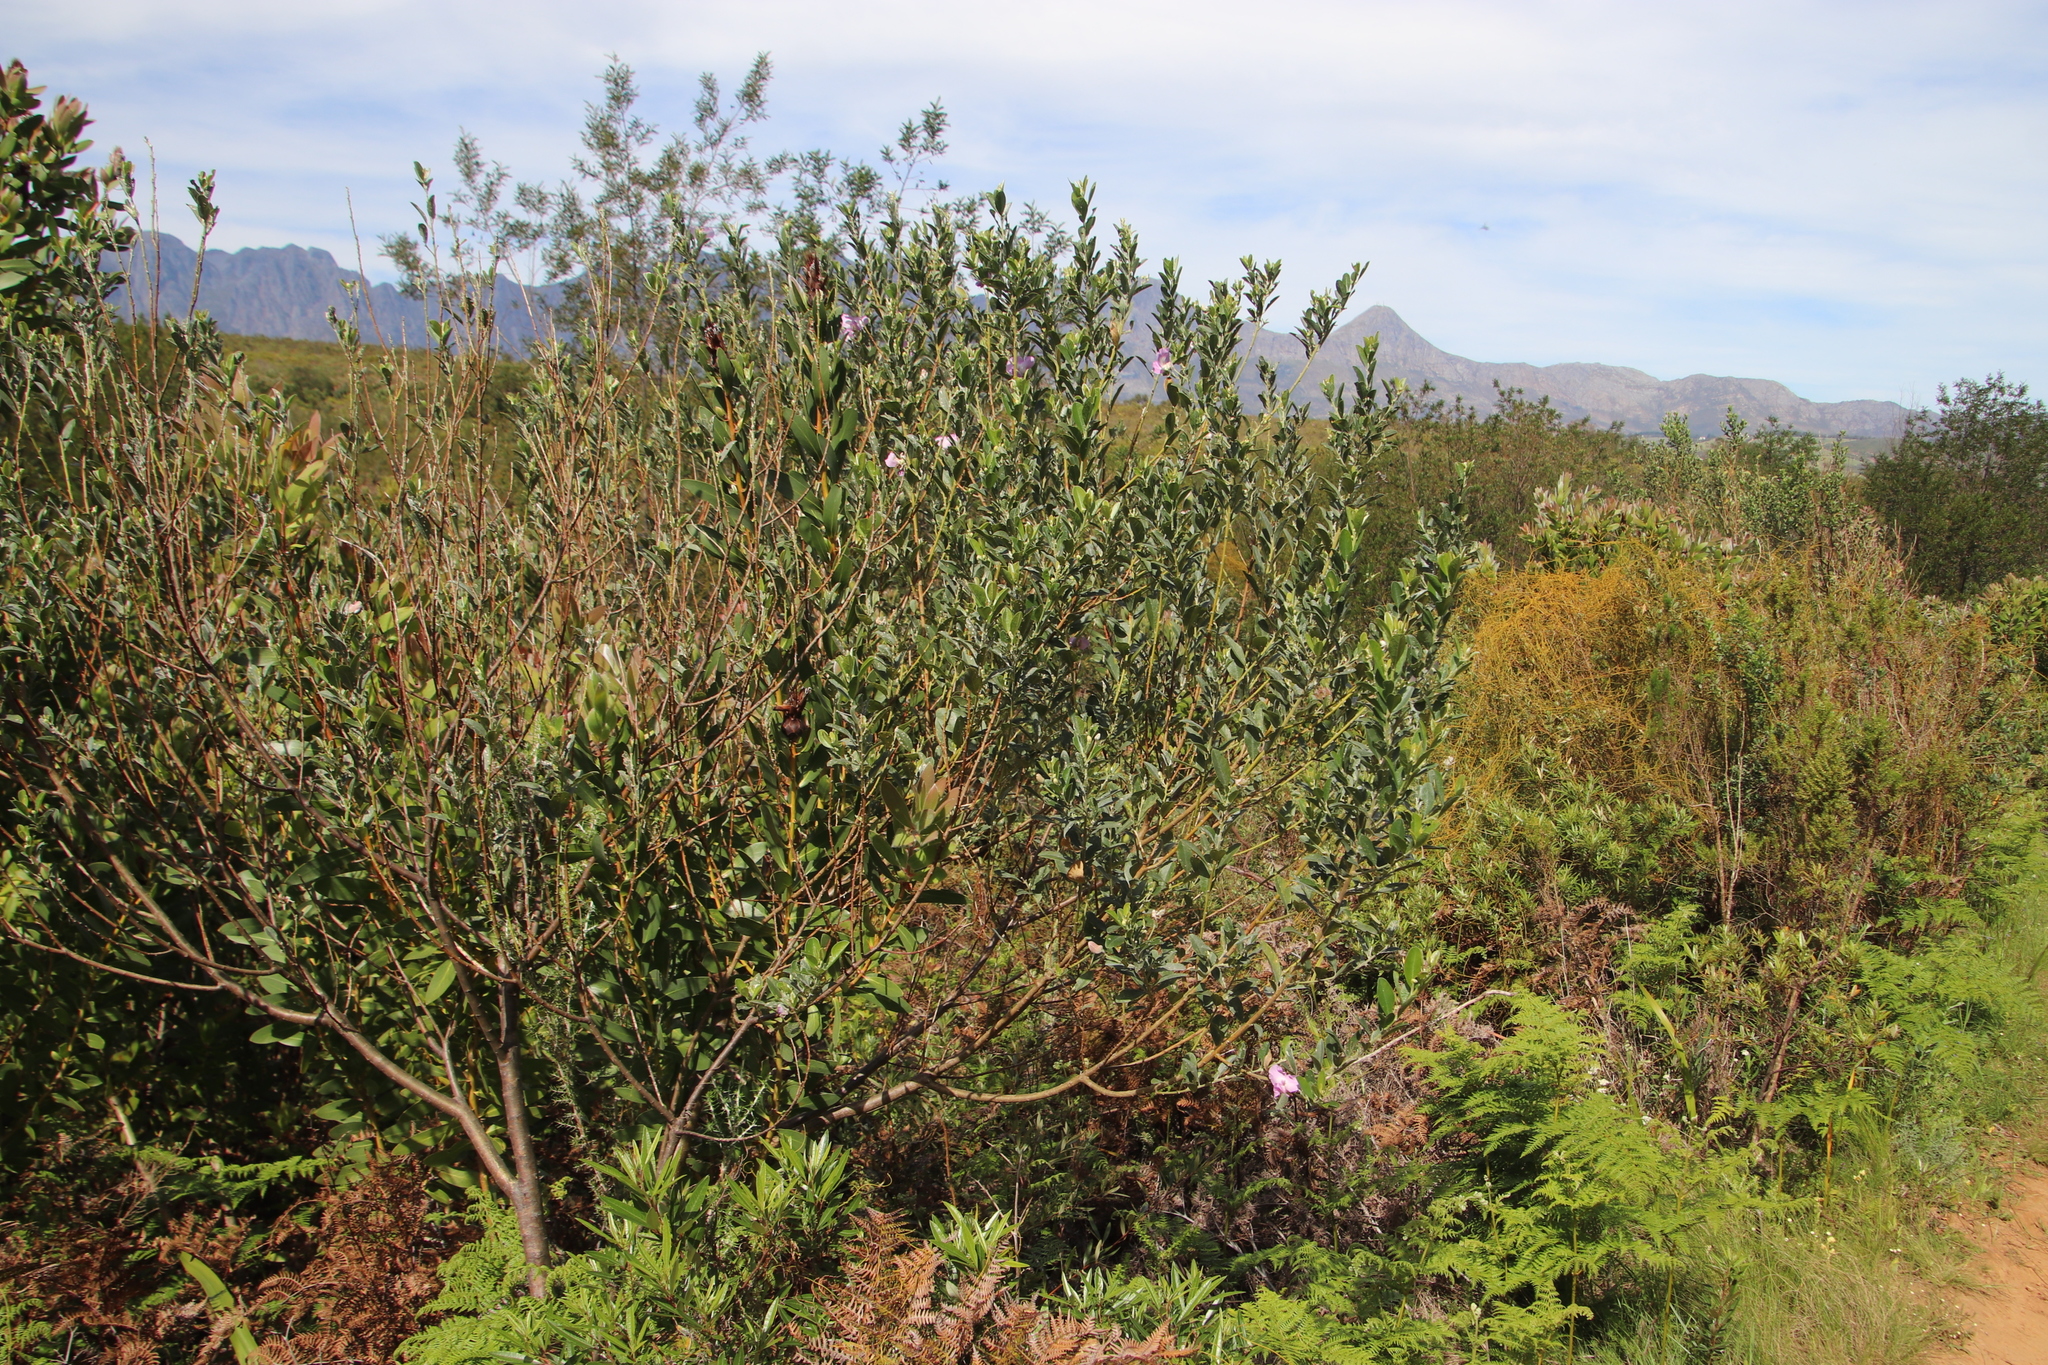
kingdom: Plantae
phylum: Tracheophyta
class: Magnoliopsida
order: Fabales
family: Fabaceae
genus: Podalyria
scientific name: Podalyria calyptrata
